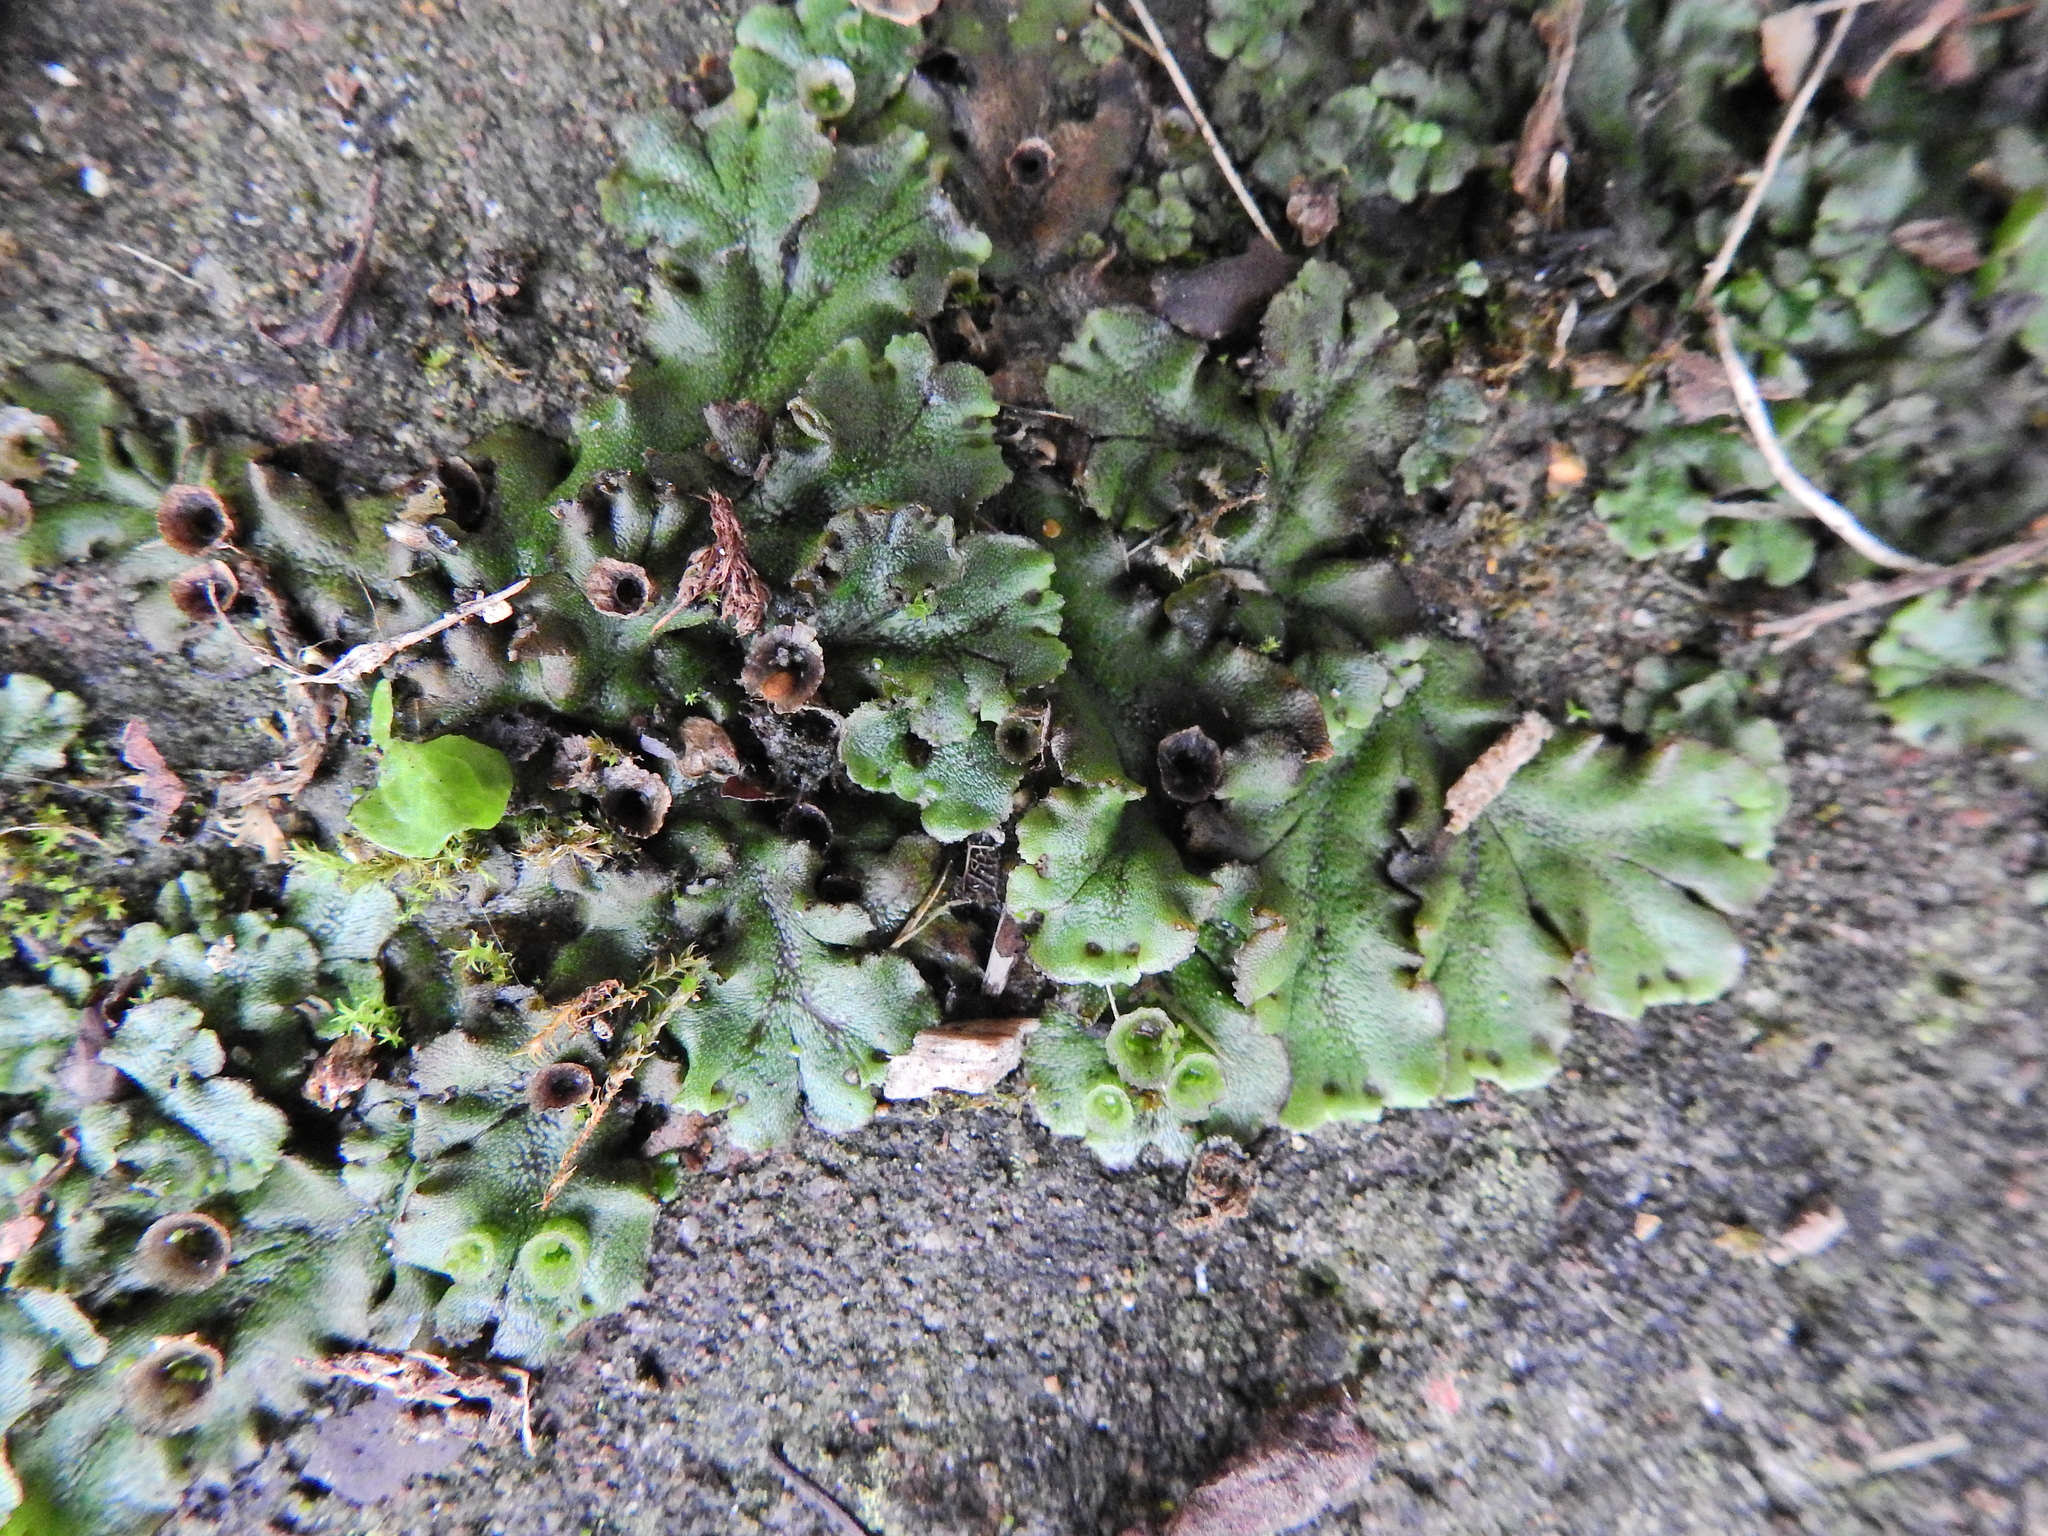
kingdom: Plantae
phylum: Marchantiophyta
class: Marchantiopsida
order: Marchantiales
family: Marchantiaceae
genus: Marchantia
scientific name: Marchantia polymorpha
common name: Common liverwort
